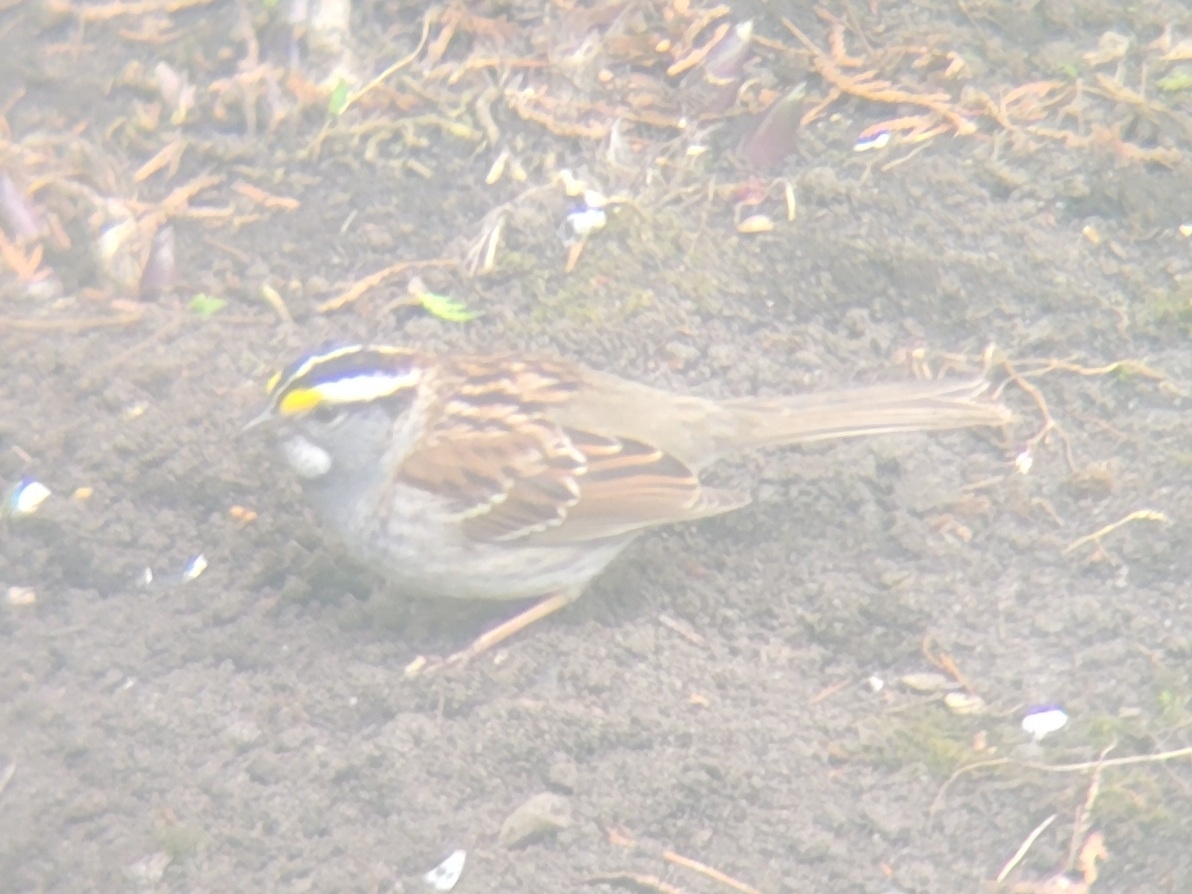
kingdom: Animalia
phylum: Chordata
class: Aves
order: Passeriformes
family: Passerellidae
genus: Zonotrichia
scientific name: Zonotrichia albicollis
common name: White-throated sparrow
